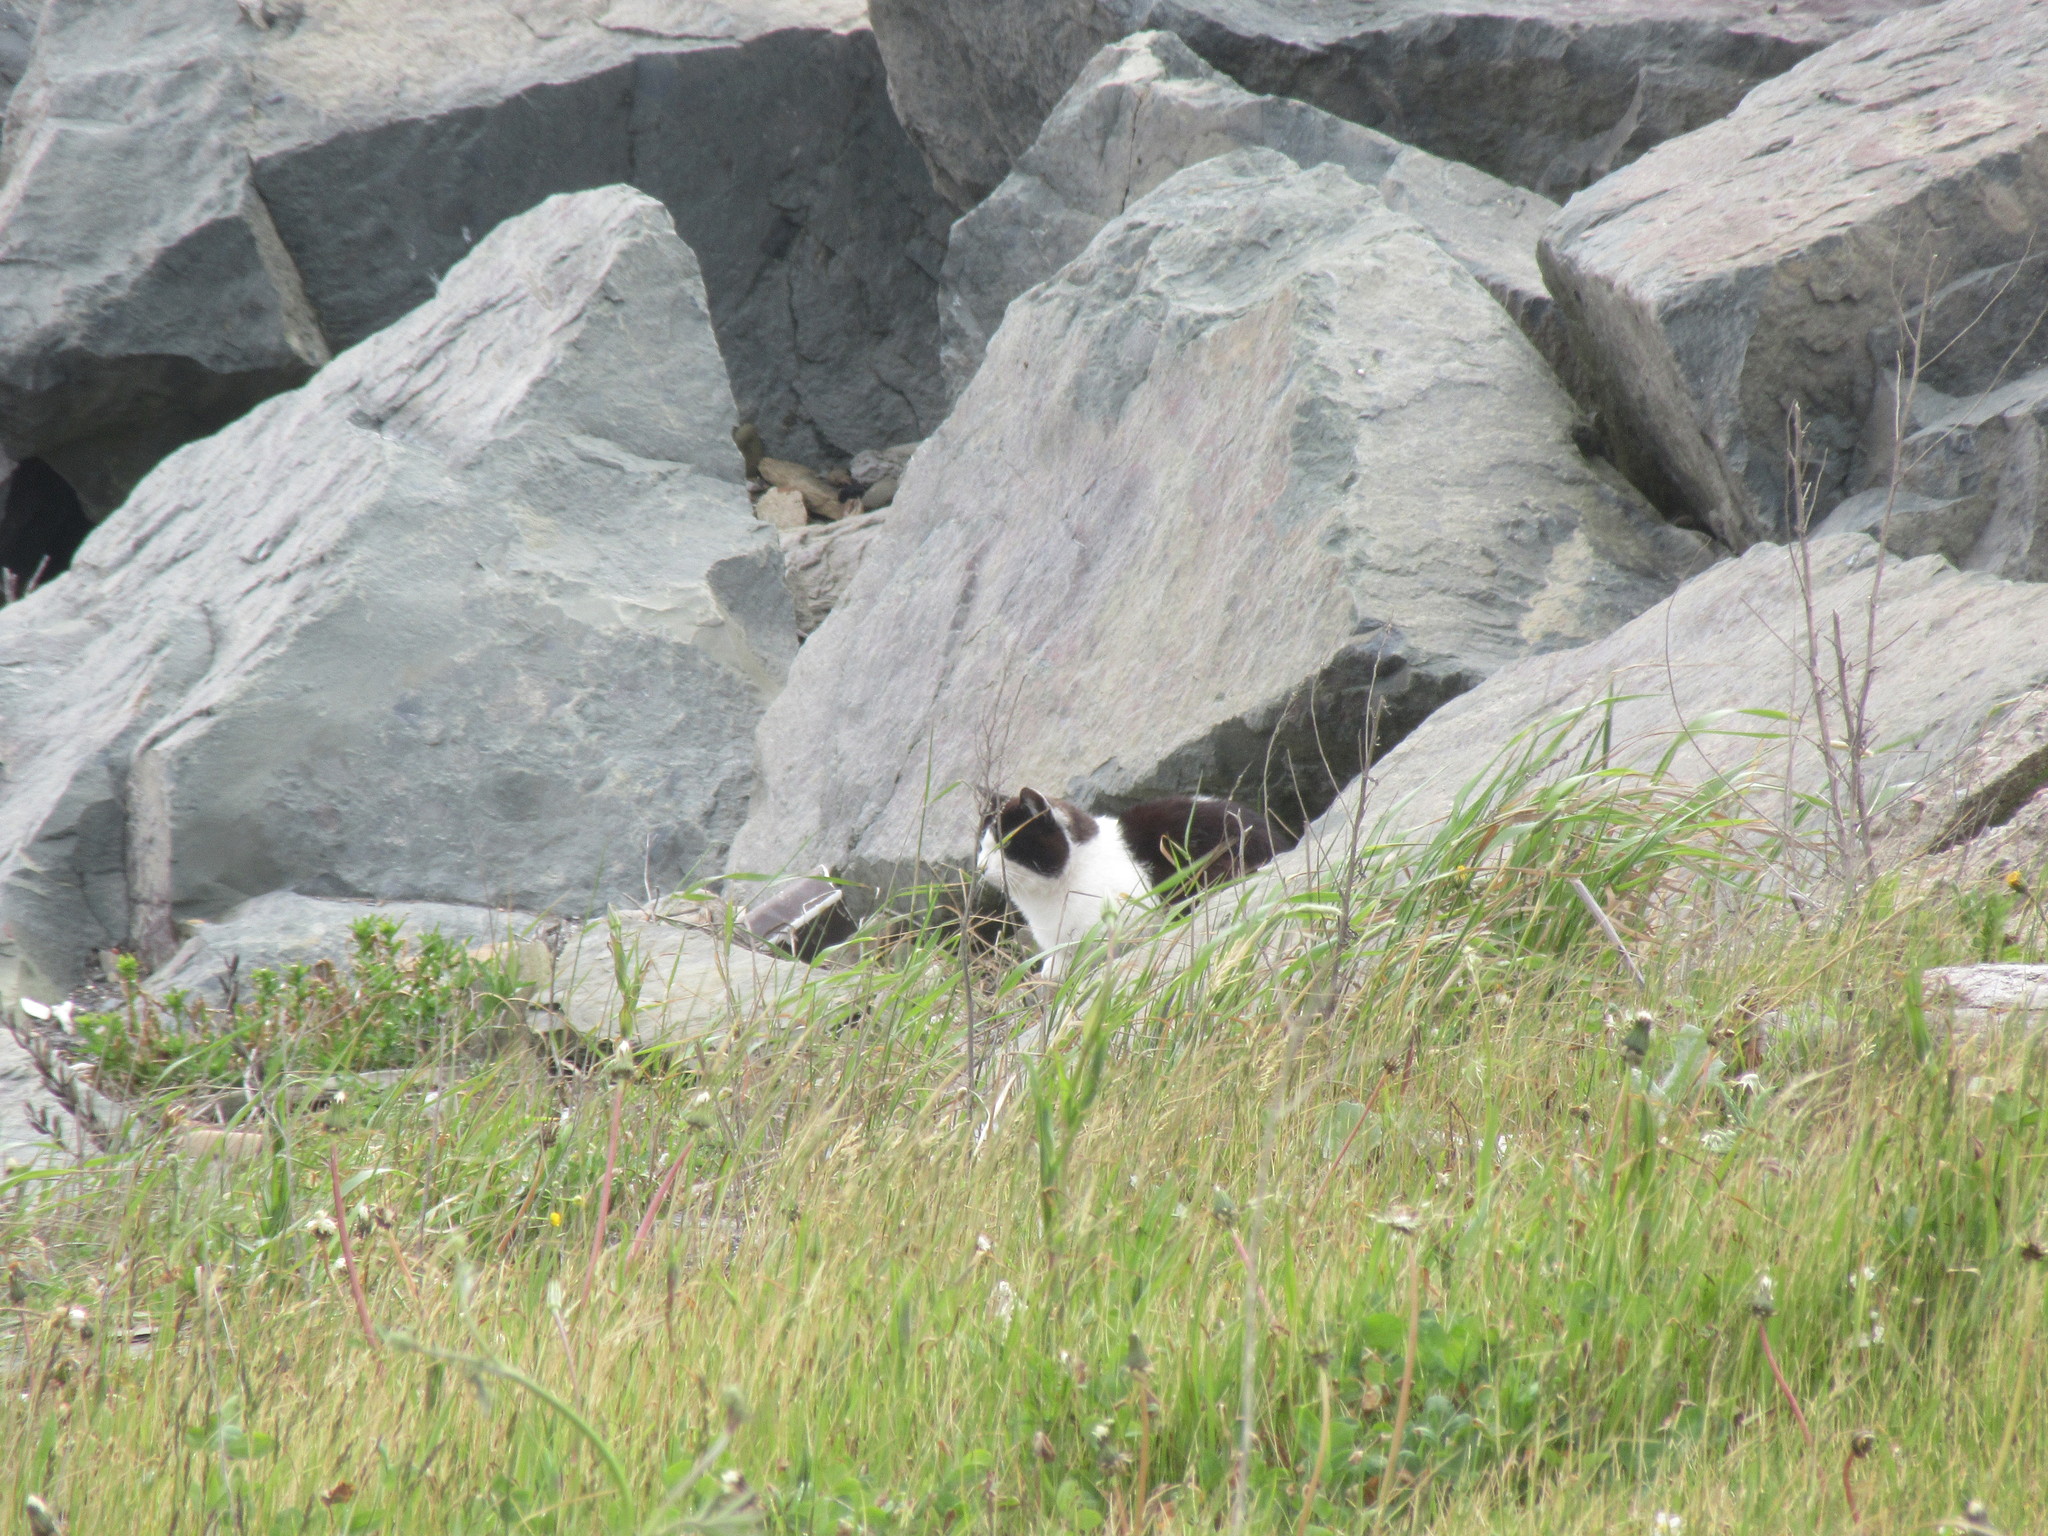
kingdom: Animalia
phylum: Chordata
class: Mammalia
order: Carnivora
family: Felidae
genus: Felis
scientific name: Felis catus
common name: Domestic cat
